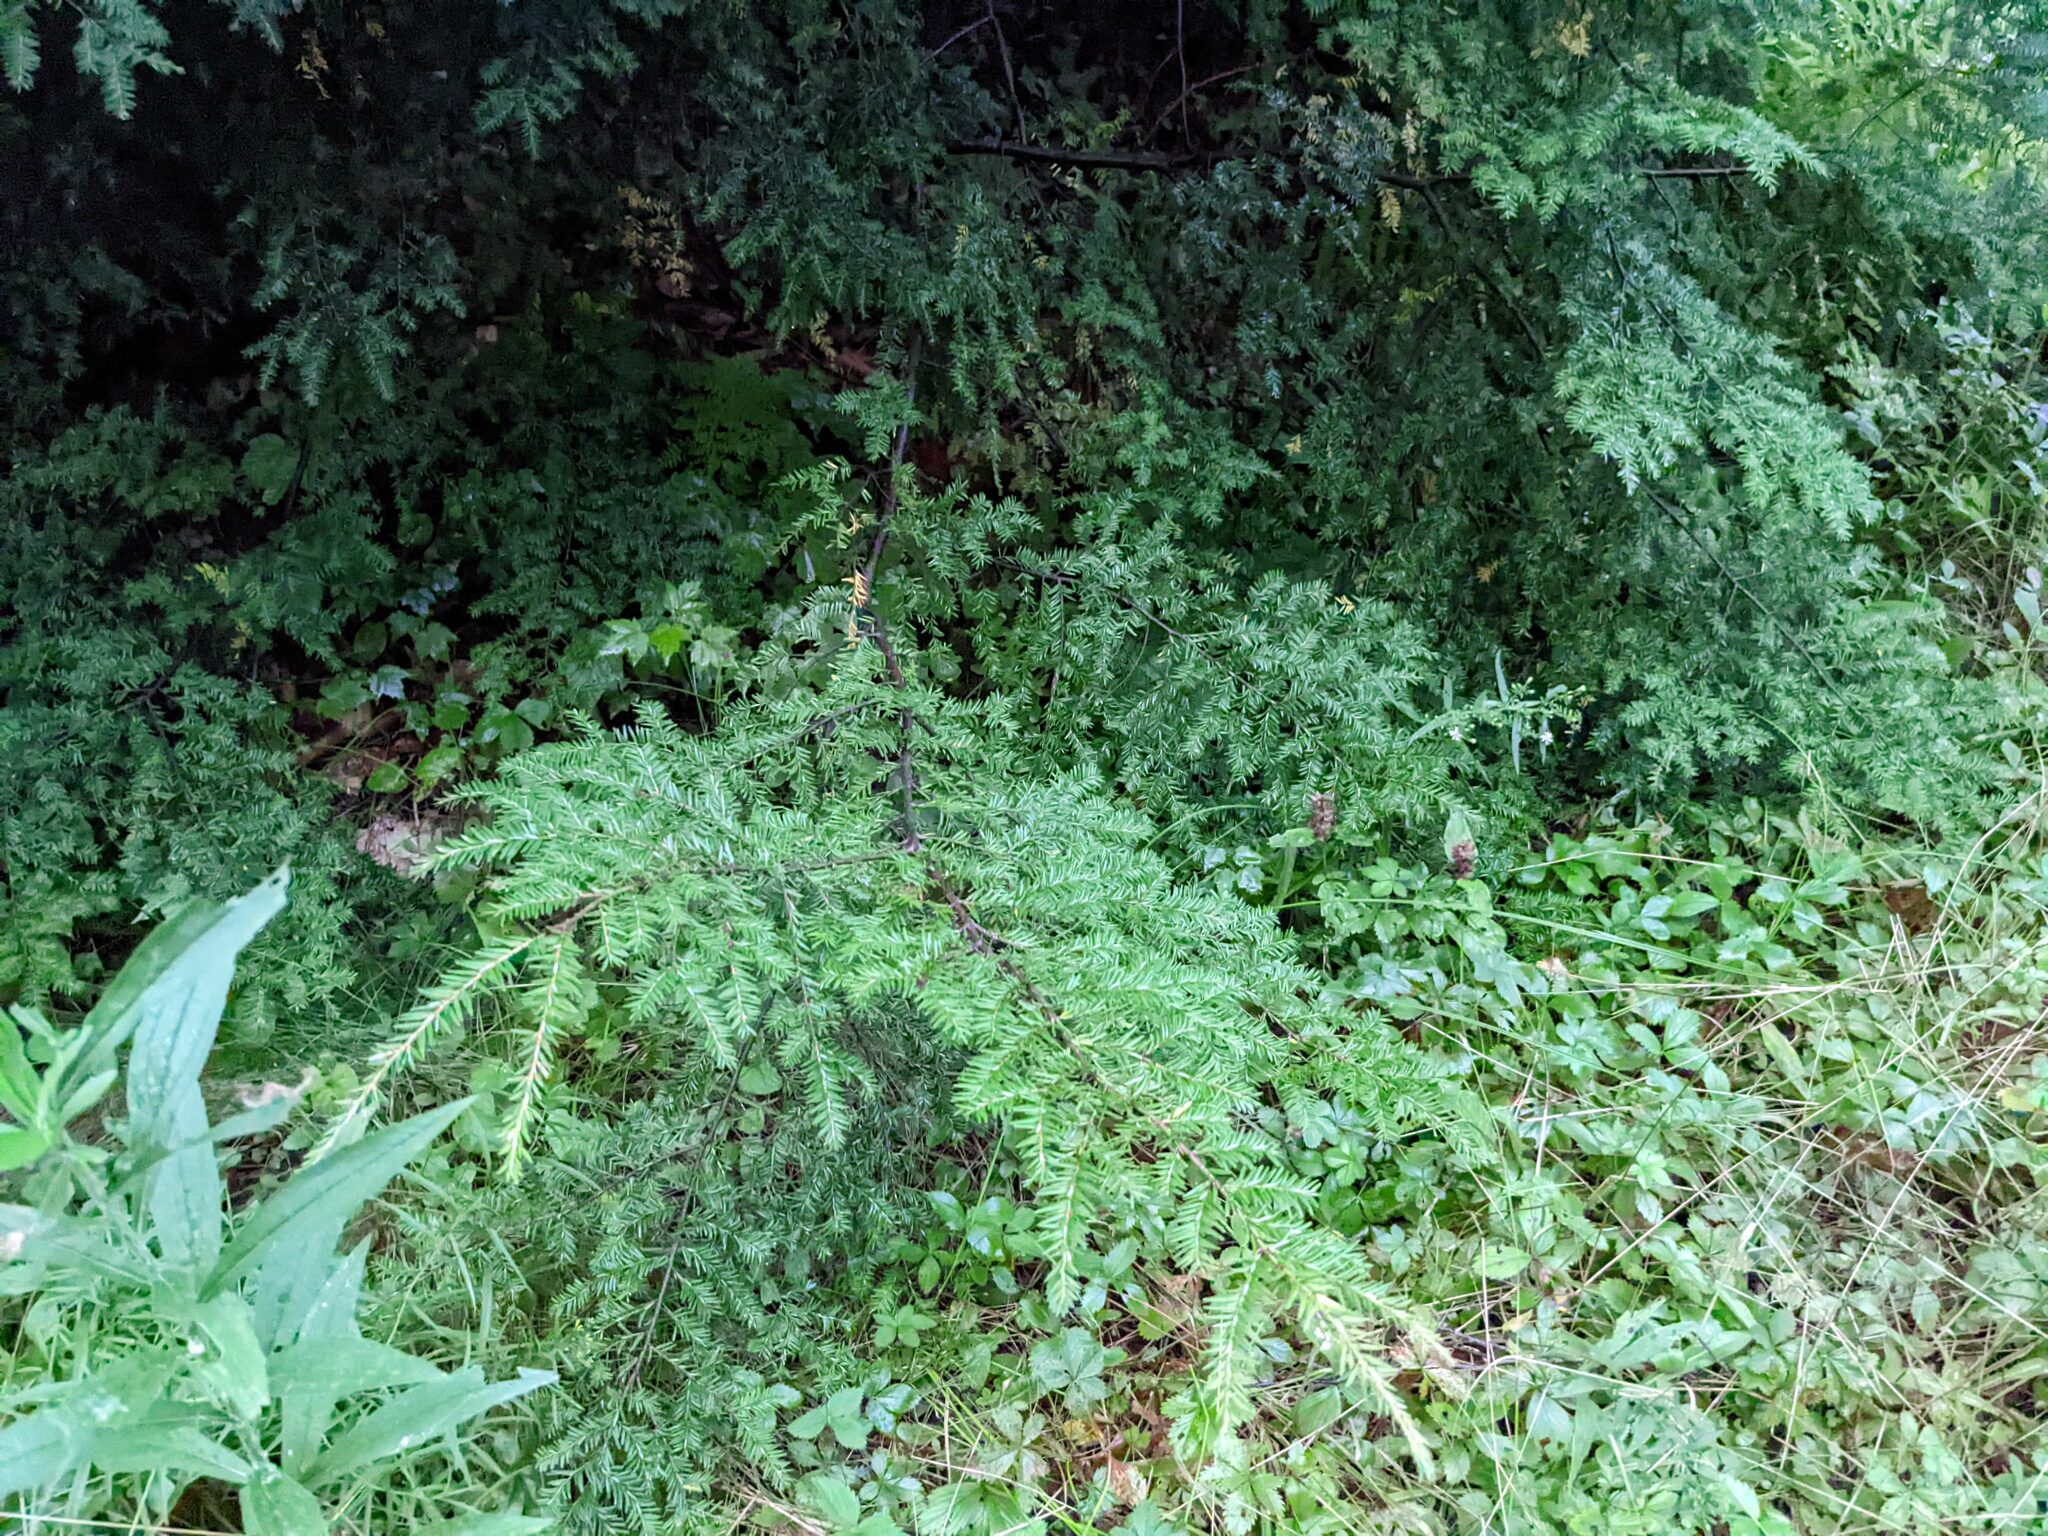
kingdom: Plantae
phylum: Tracheophyta
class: Pinopsida
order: Pinales
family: Pinaceae
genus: Tsuga
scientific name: Tsuga canadensis
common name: Eastern hemlock
